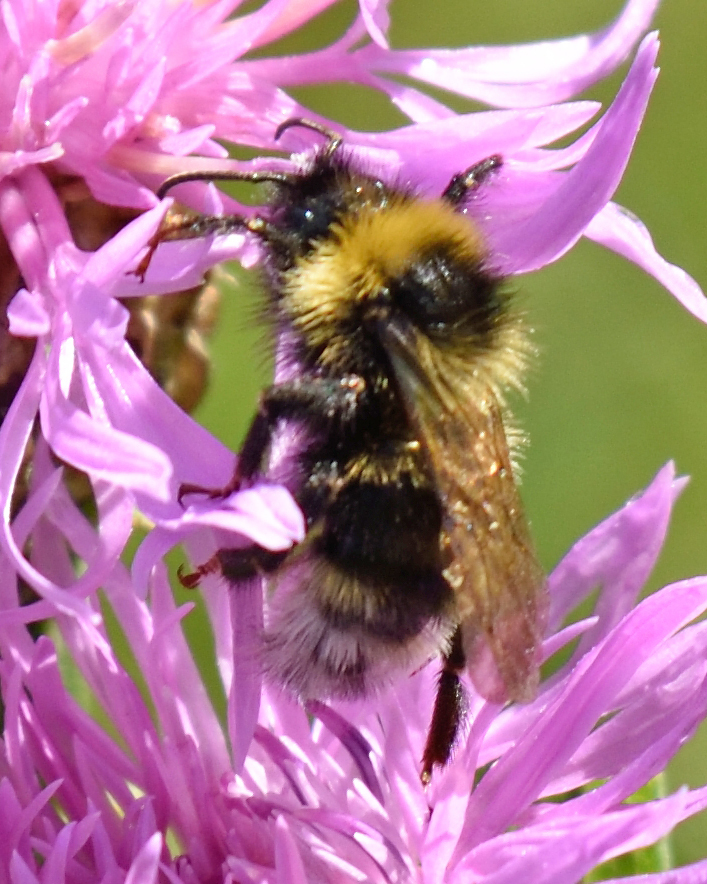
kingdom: Animalia
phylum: Arthropoda
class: Insecta
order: Hymenoptera
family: Apidae
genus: Bombus
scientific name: Bombus
